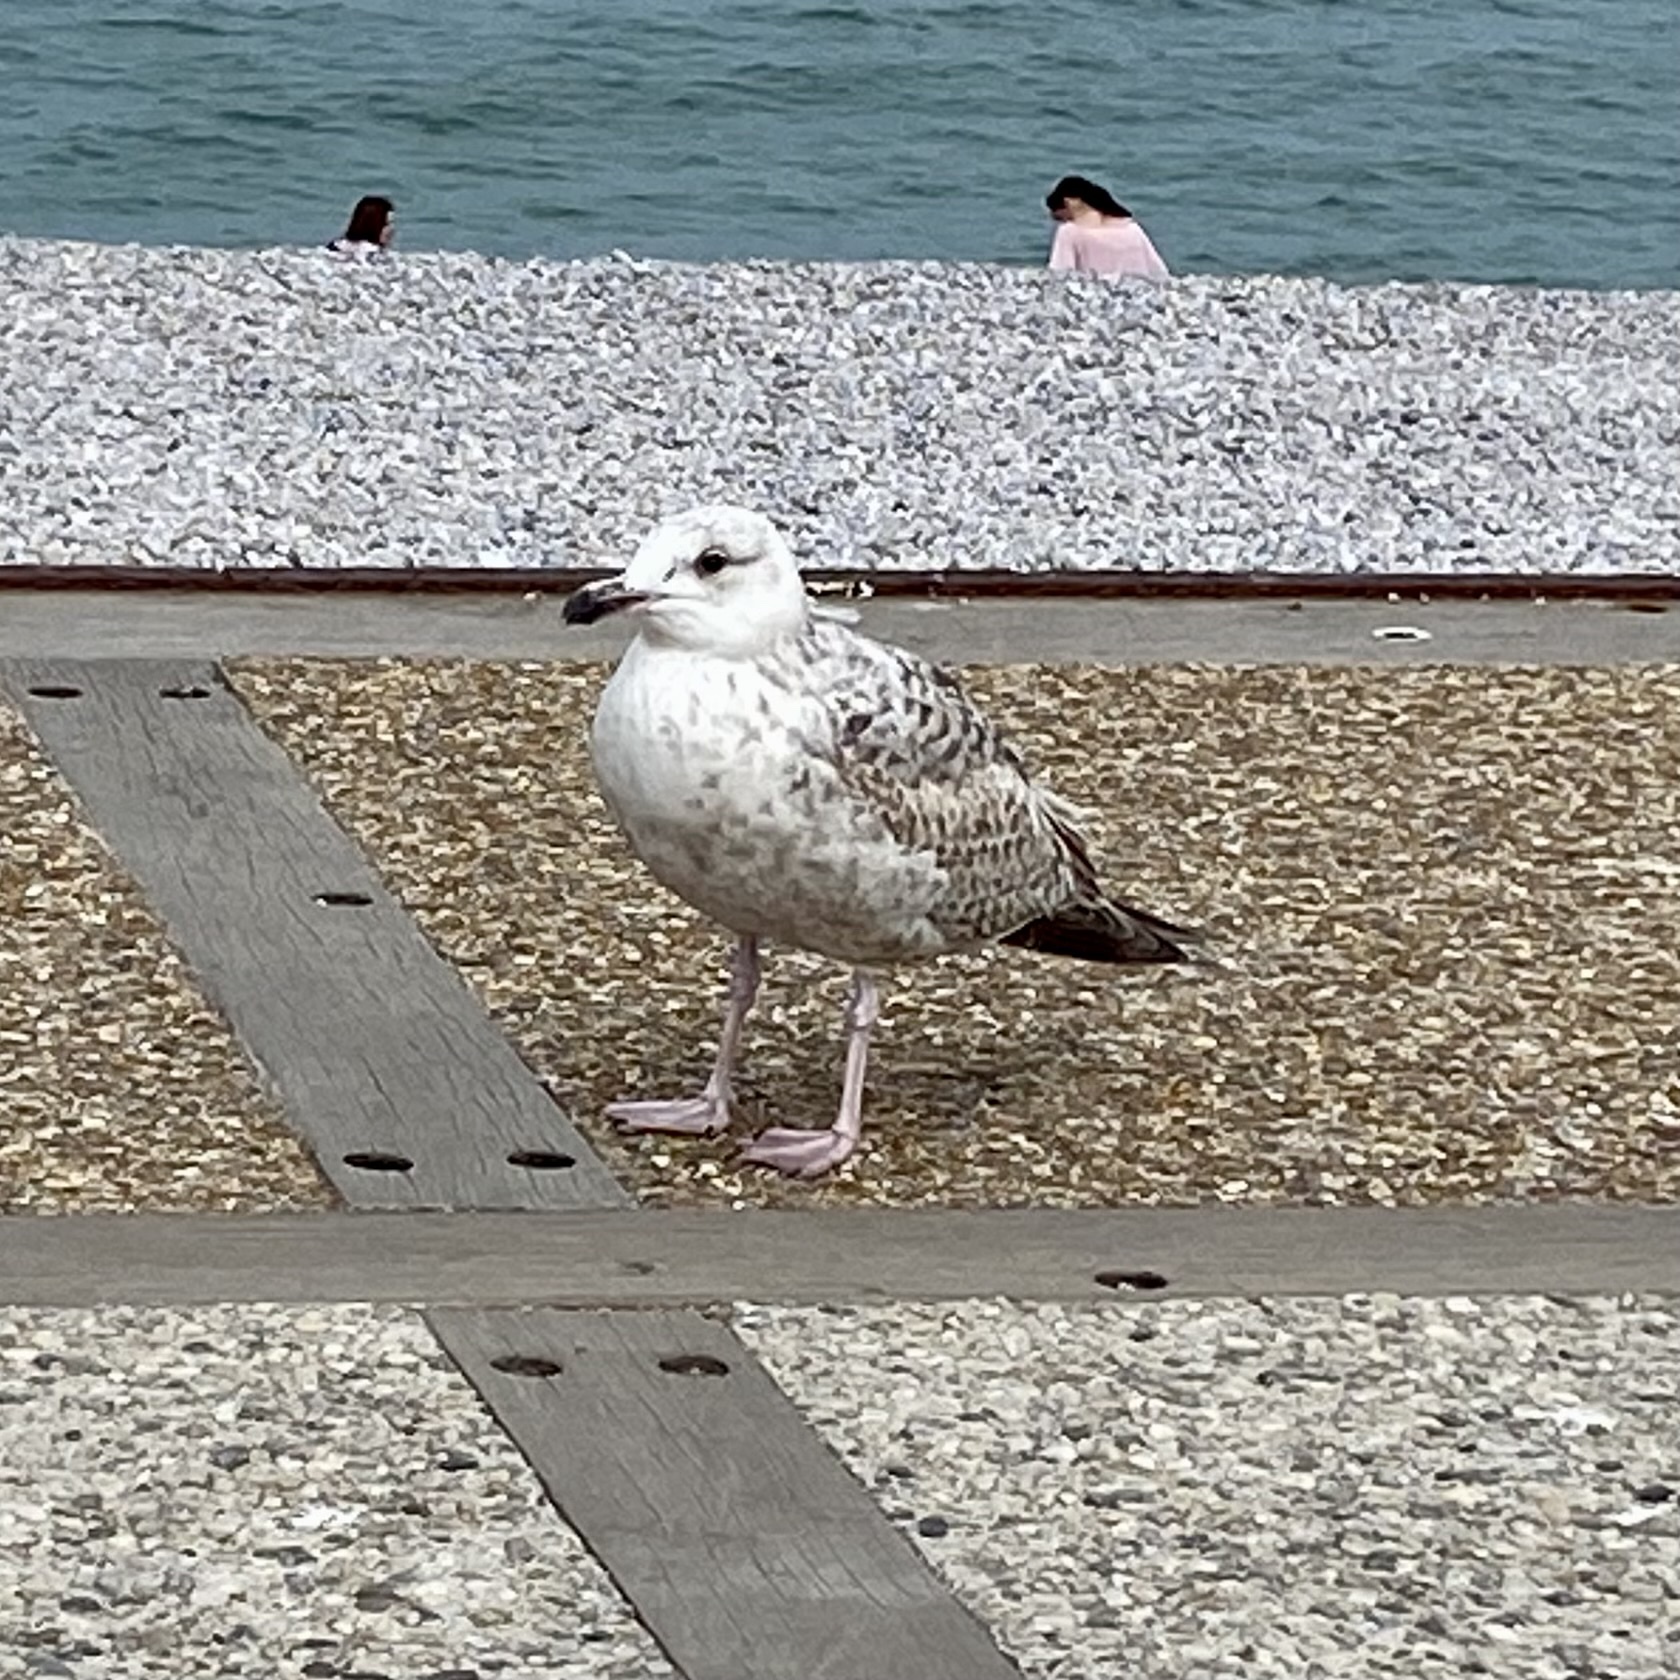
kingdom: Animalia
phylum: Chordata
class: Aves
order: Charadriiformes
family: Laridae
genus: Larus
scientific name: Larus argentatus
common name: Herring gull
